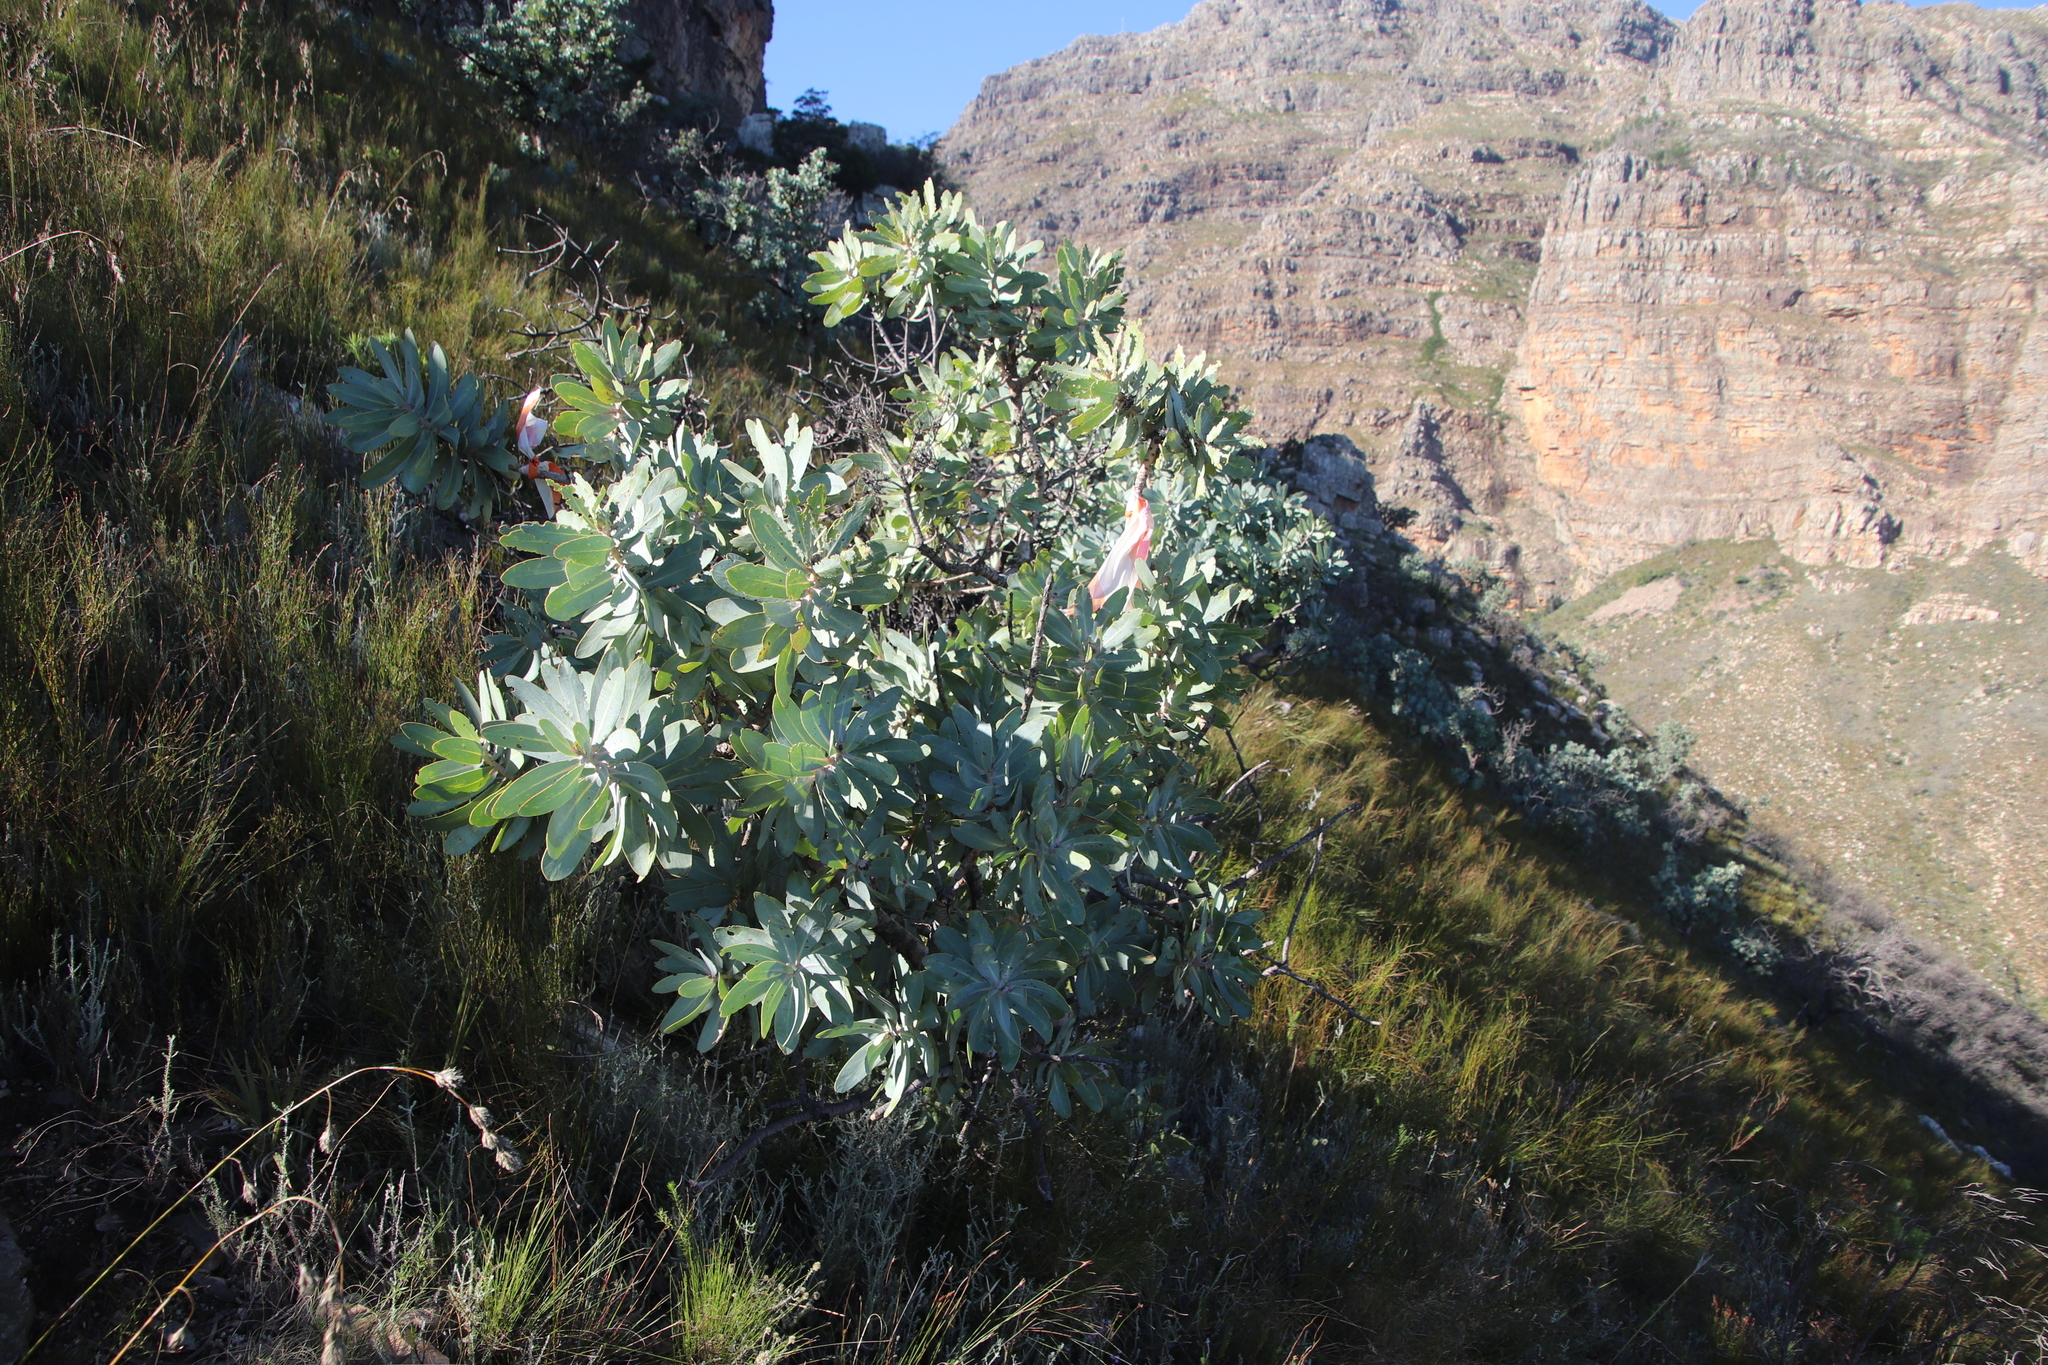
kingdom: Plantae
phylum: Tracheophyta
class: Magnoliopsida
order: Proteales
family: Proteaceae
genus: Protea
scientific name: Protea nitida
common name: Tree protea
